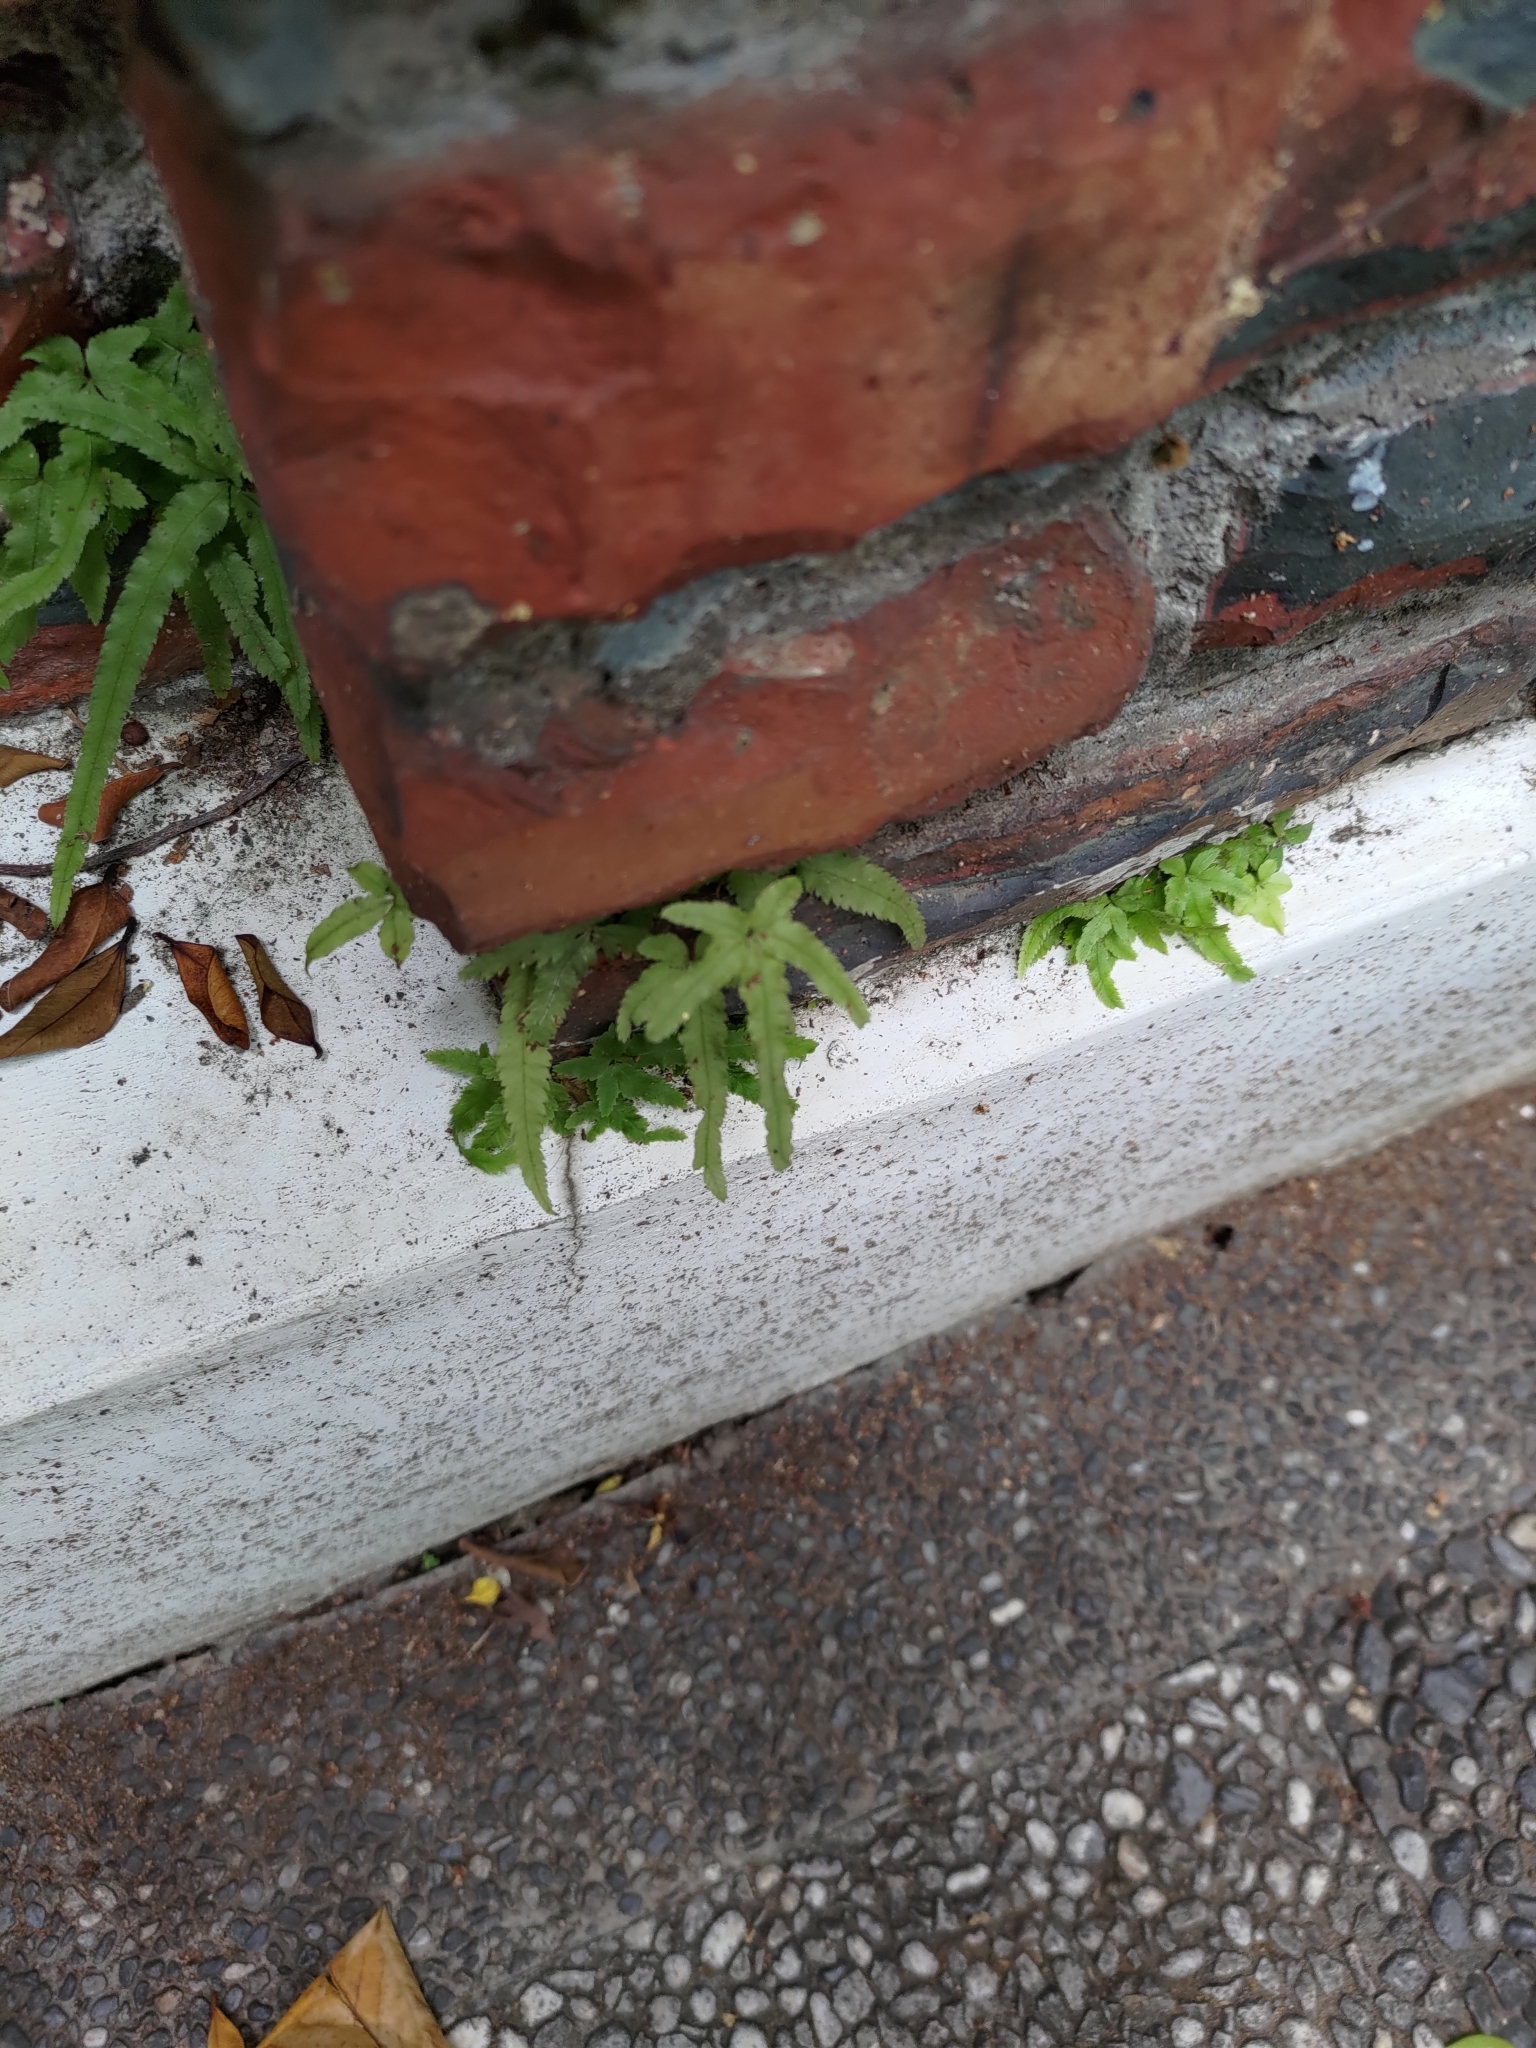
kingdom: Plantae
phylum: Tracheophyta
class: Polypodiopsida
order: Schizaeales
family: Lygodiaceae
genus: Lygodium
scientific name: Lygodium japonicum
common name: Japanese climbing fern
